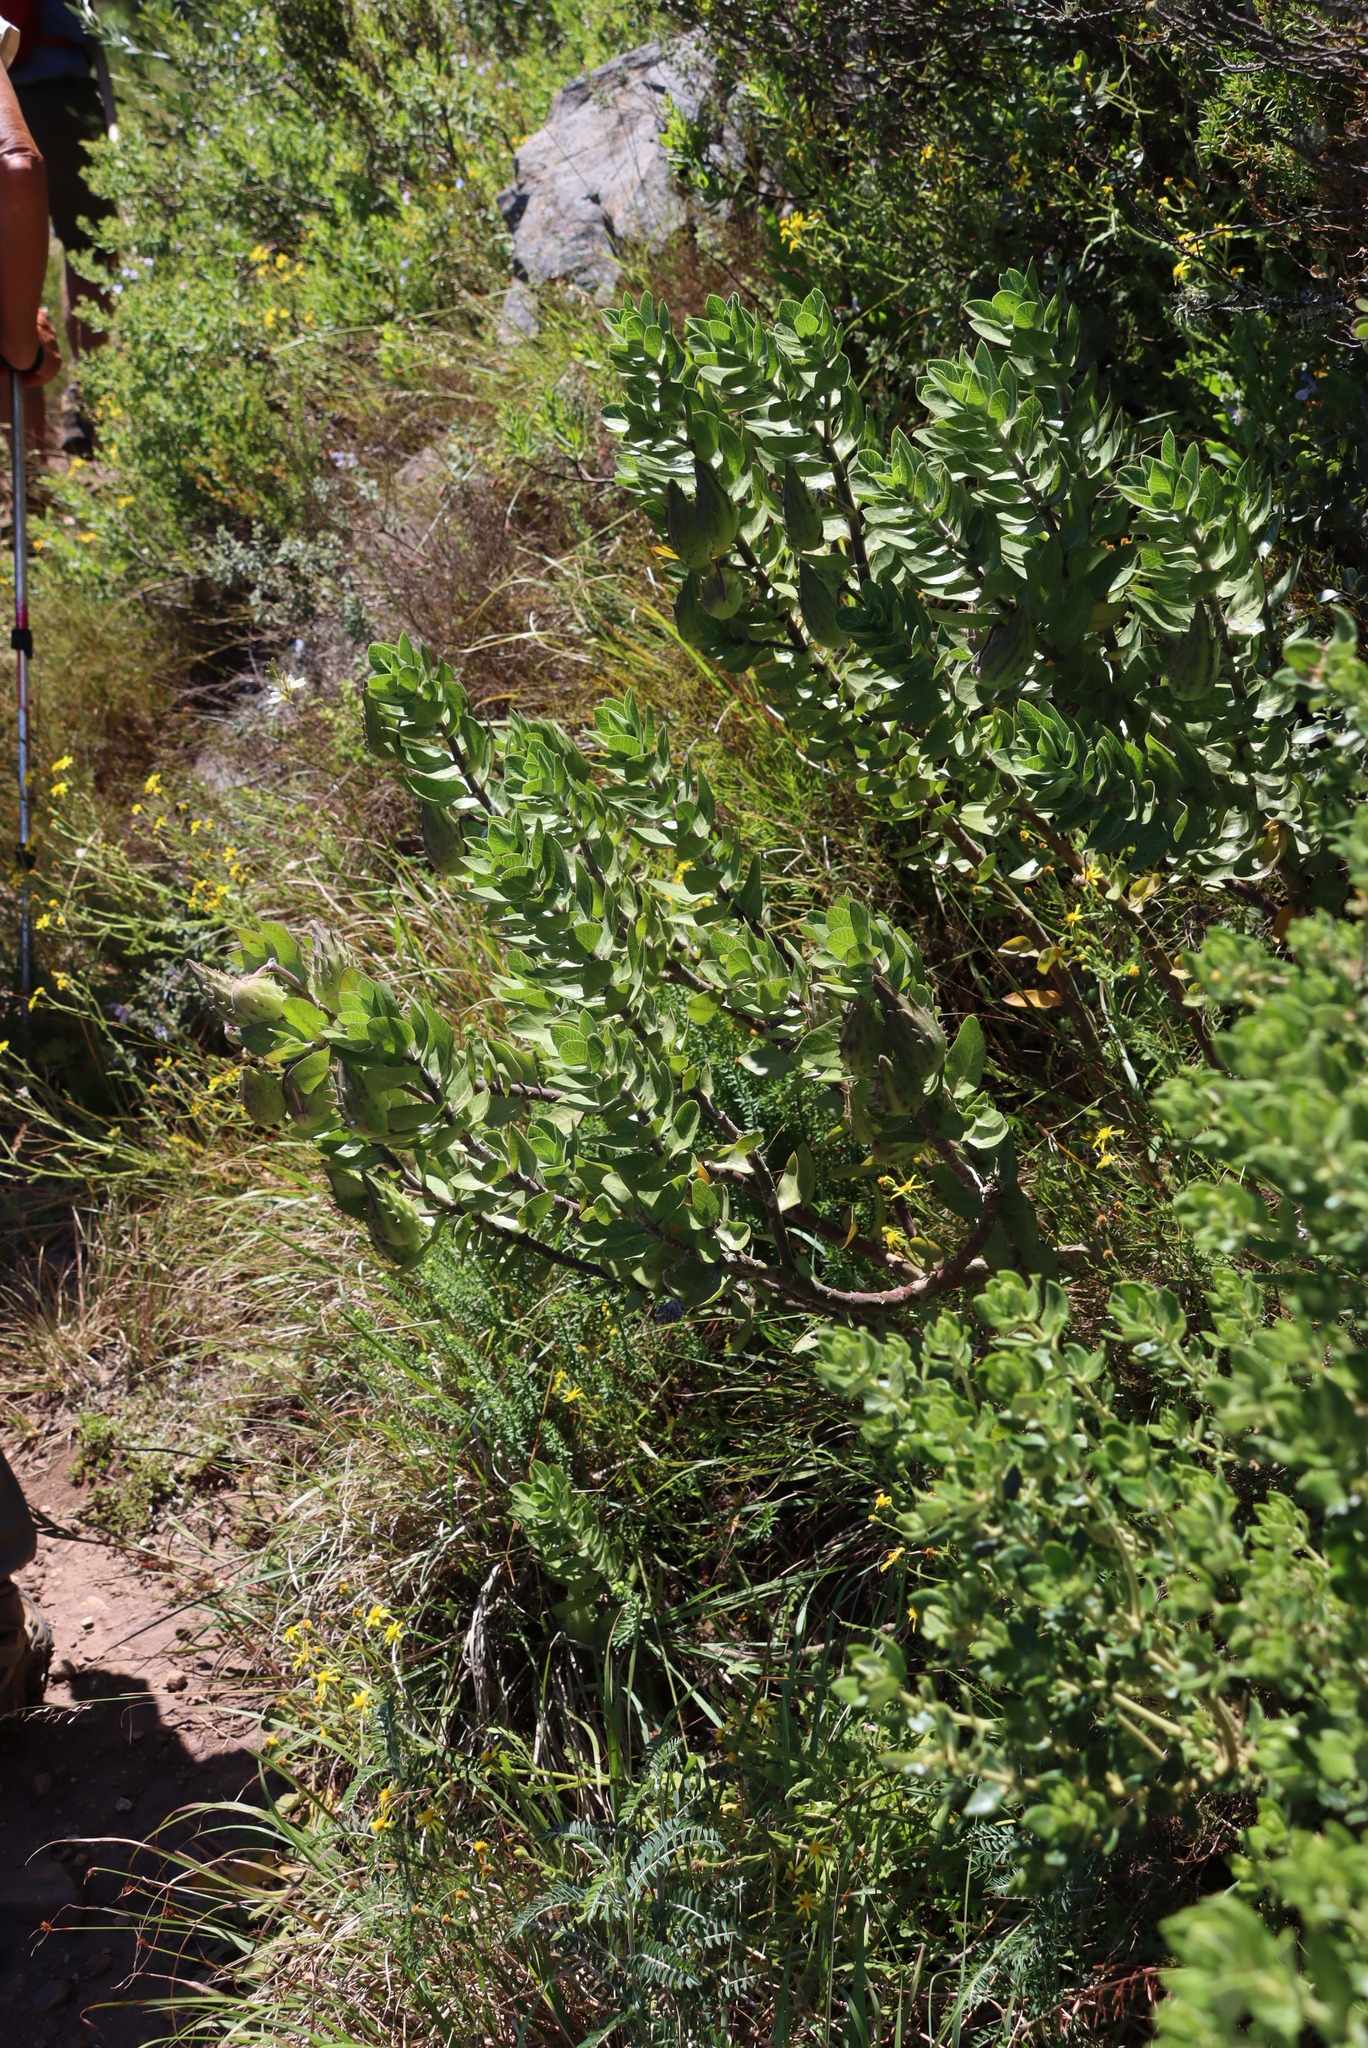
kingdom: Plantae
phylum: Tracheophyta
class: Magnoliopsida
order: Gentianales
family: Apocynaceae
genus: Gomphocarpus
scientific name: Gomphocarpus cancellatus
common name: Wild cotton
